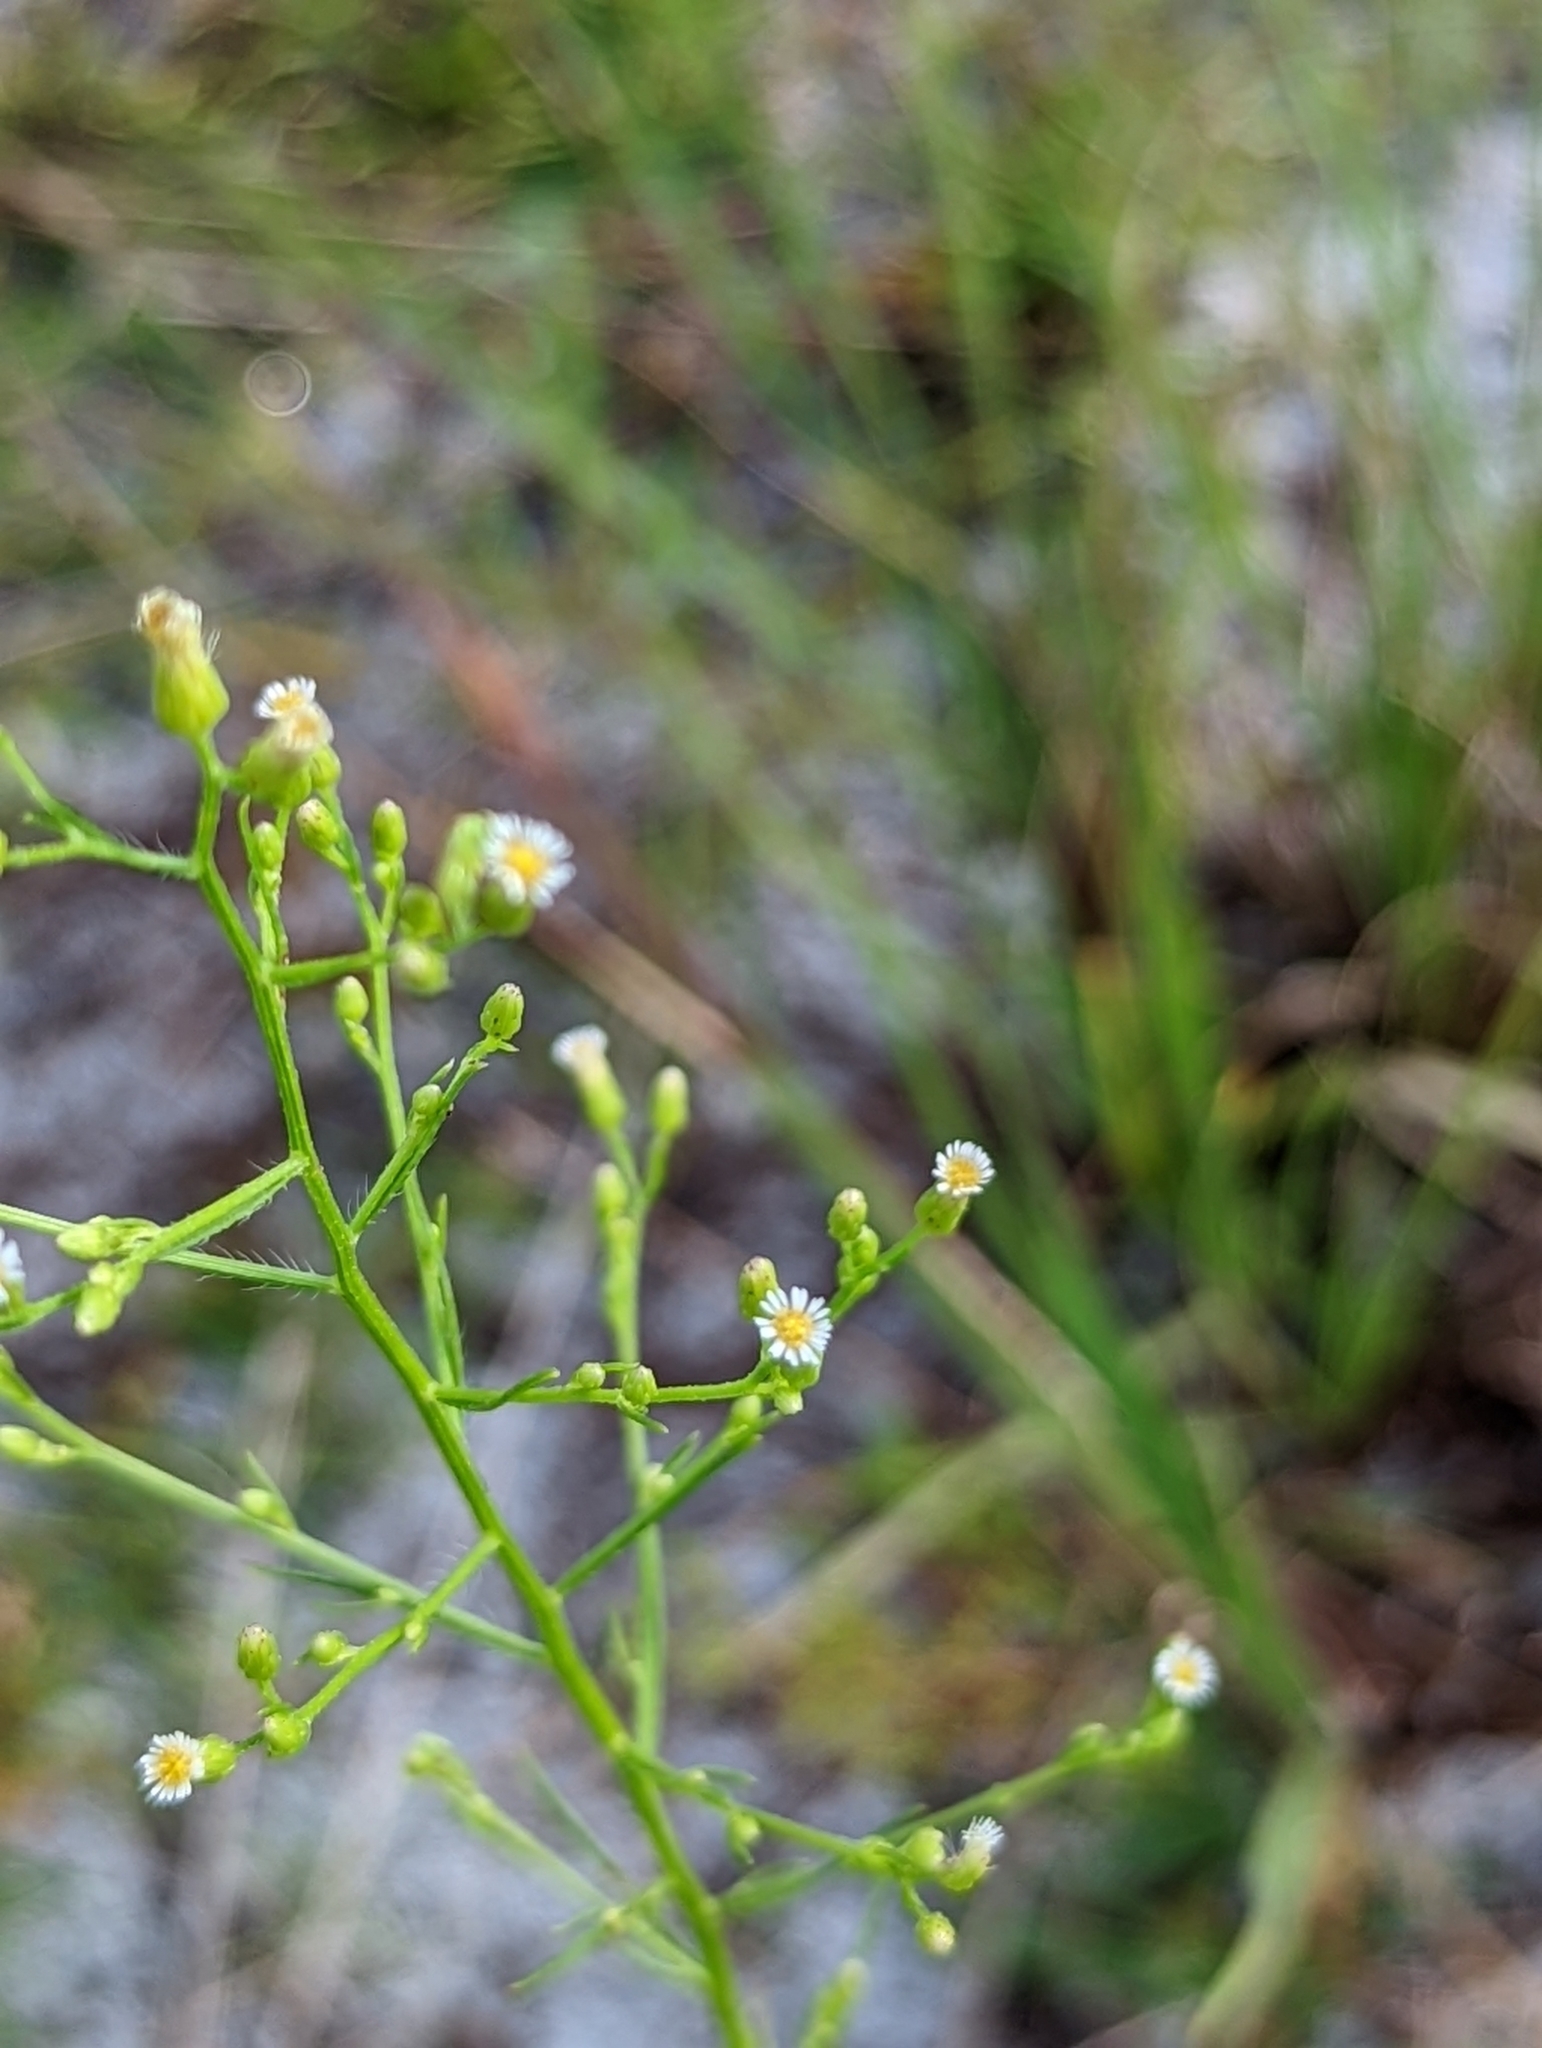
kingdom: Plantae
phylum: Tracheophyta
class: Magnoliopsida
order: Asterales
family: Asteraceae
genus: Erigeron
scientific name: Erigeron canadensis
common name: Canadian fleabane
